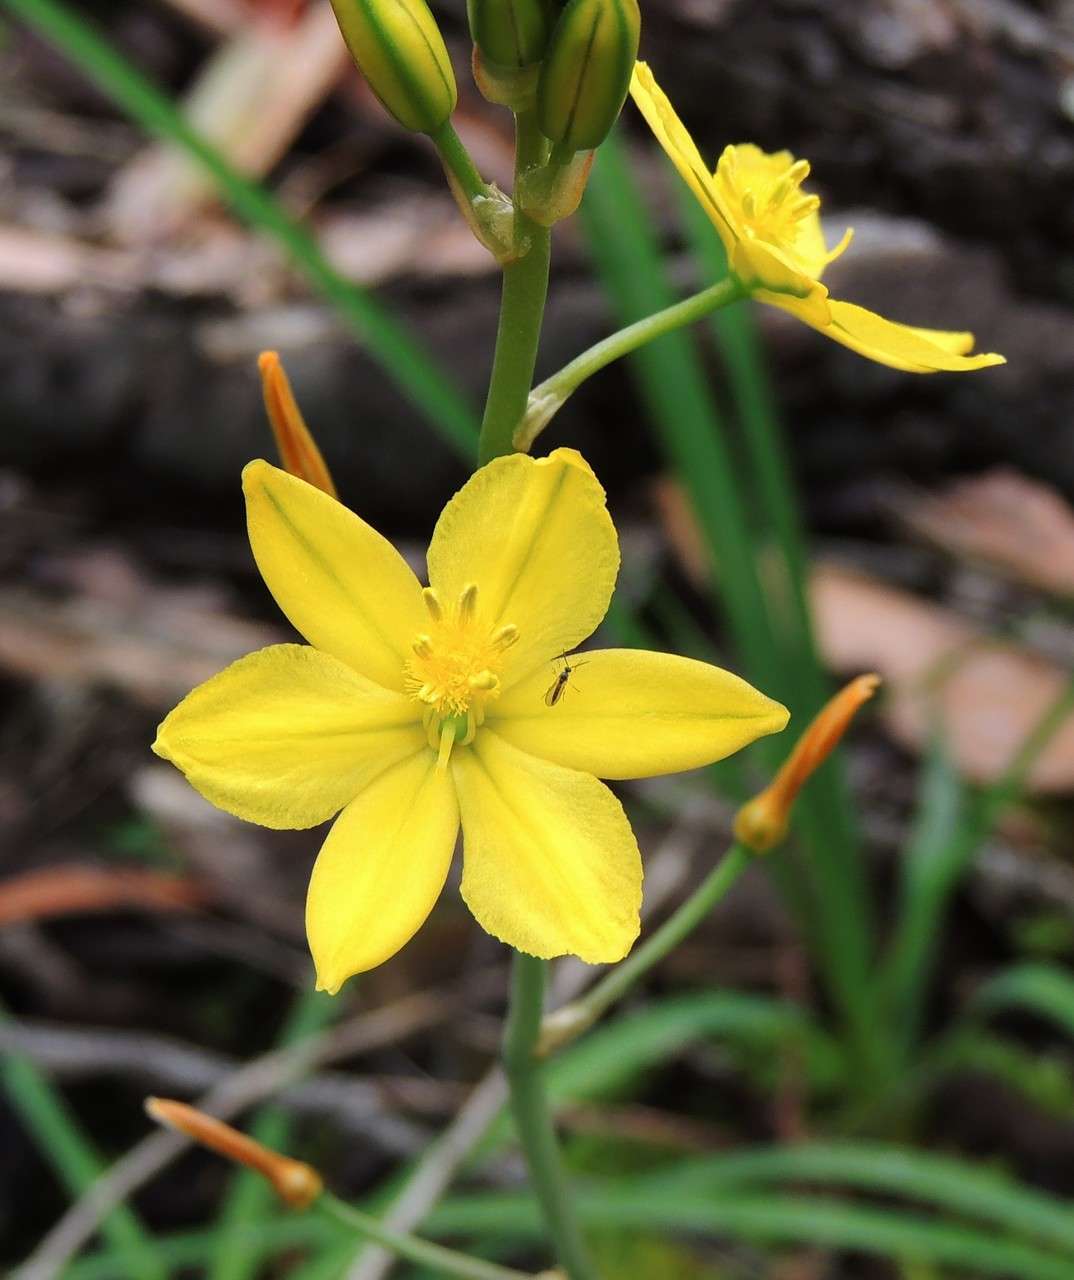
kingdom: Plantae
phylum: Tracheophyta
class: Liliopsida
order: Asparagales
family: Asphodelaceae
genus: Bulbine
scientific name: Bulbine bulbosa
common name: Golden-lily
